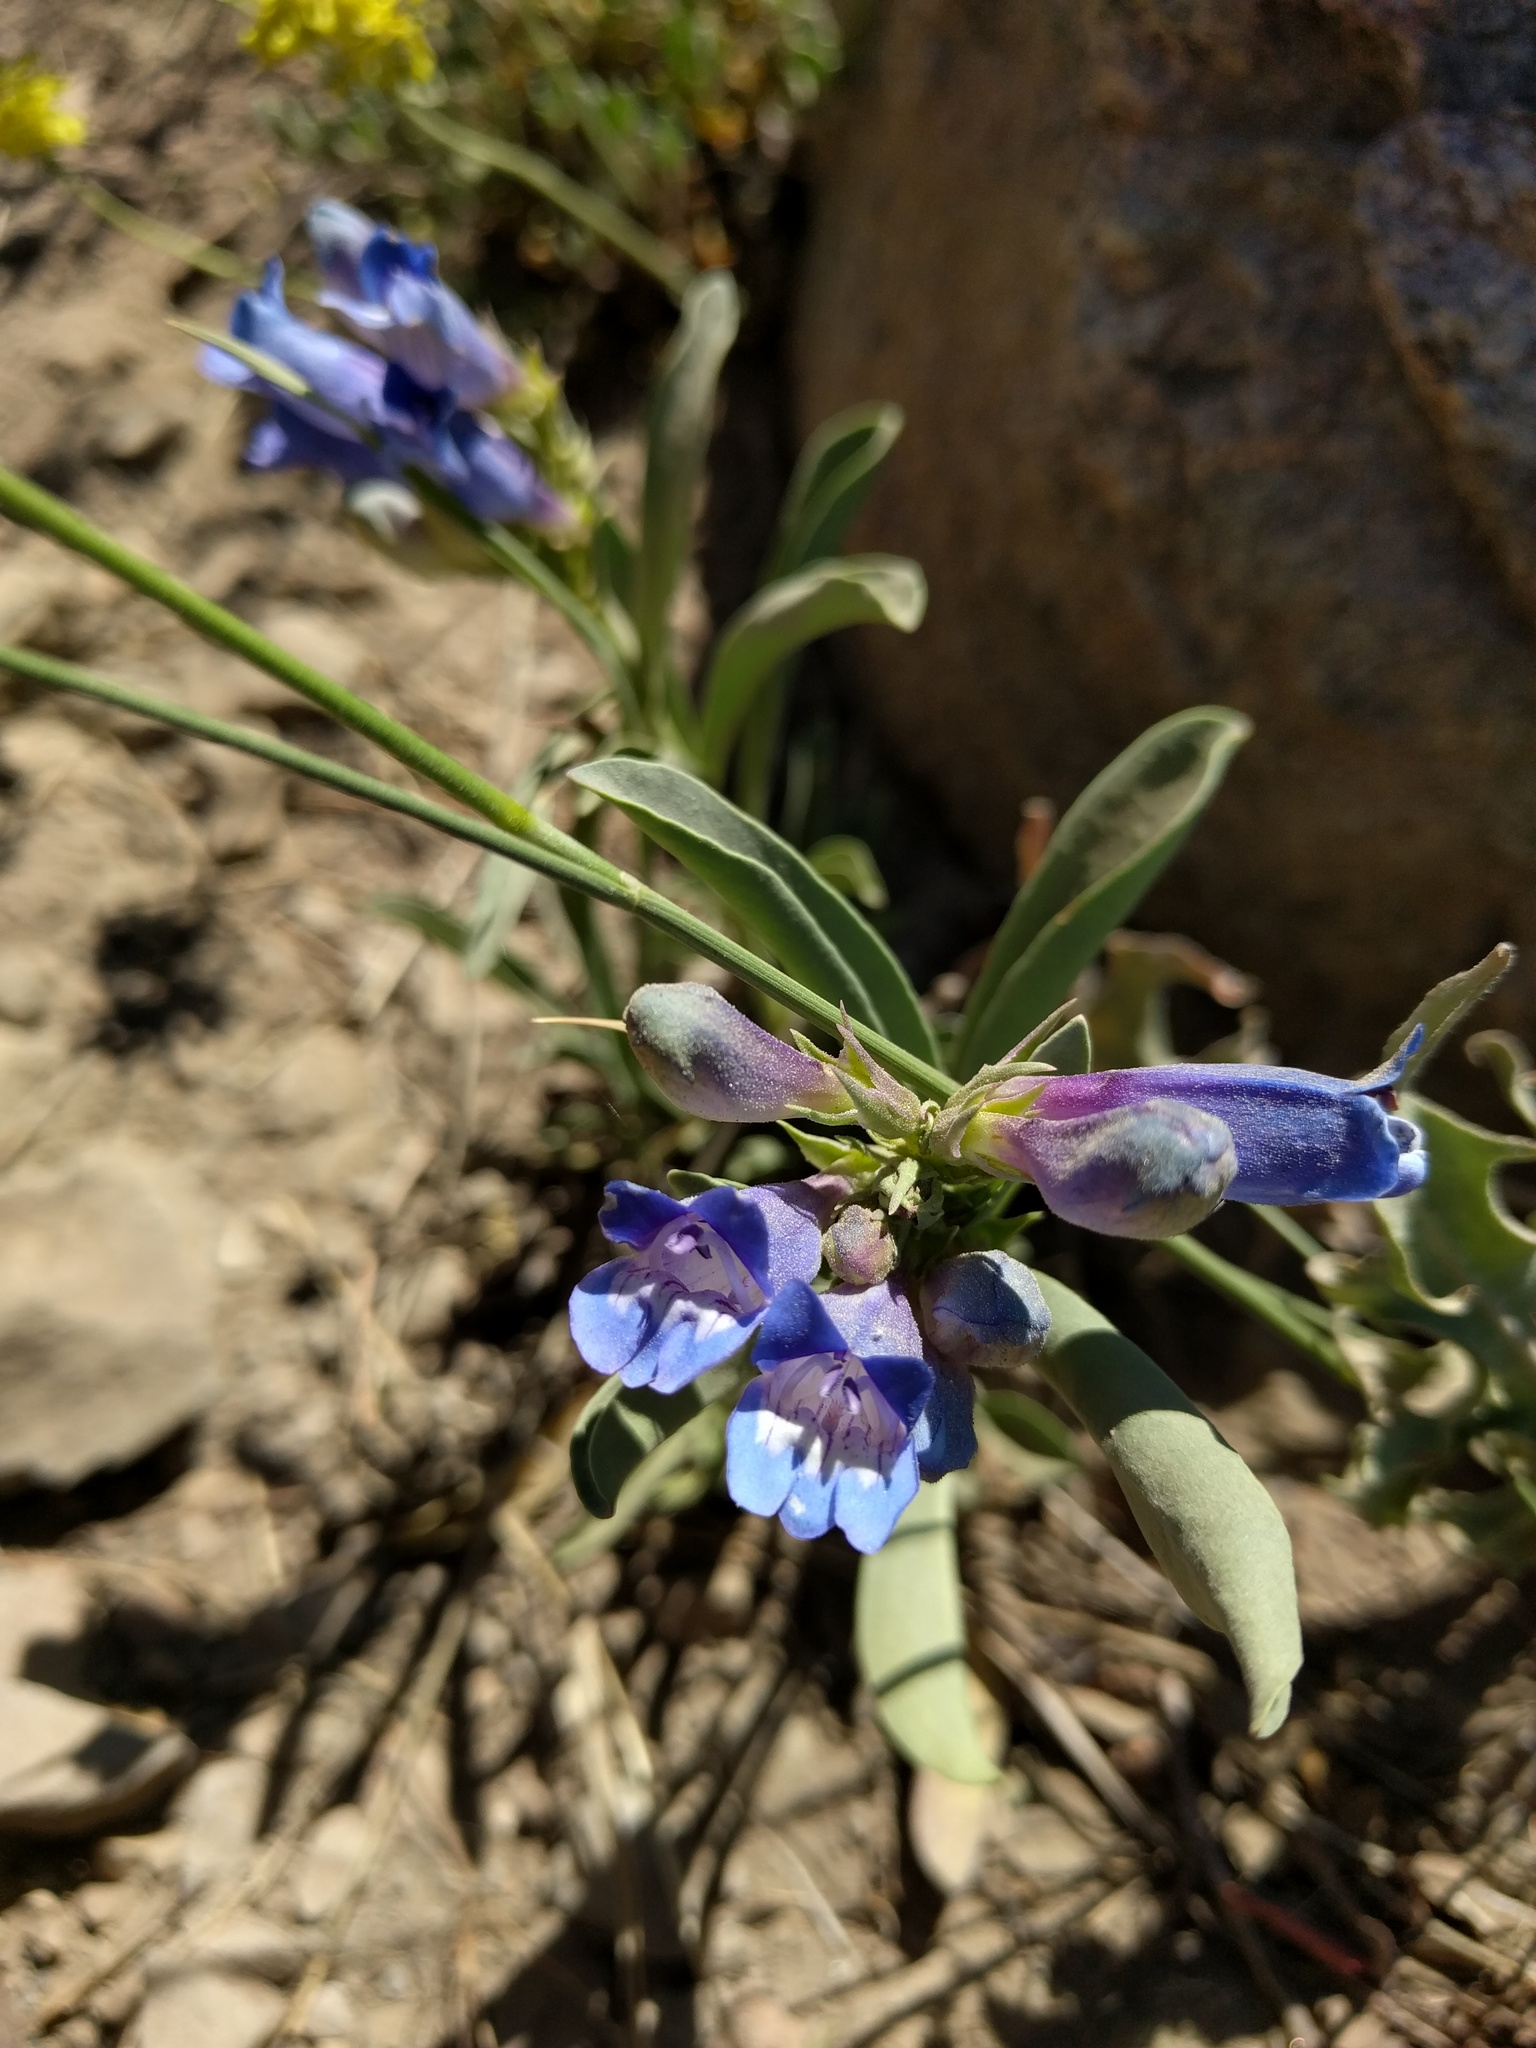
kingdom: Plantae
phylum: Tracheophyta
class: Magnoliopsida
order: Lamiales
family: Plantaginaceae
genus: Penstemon
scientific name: Penstemon speciosus
